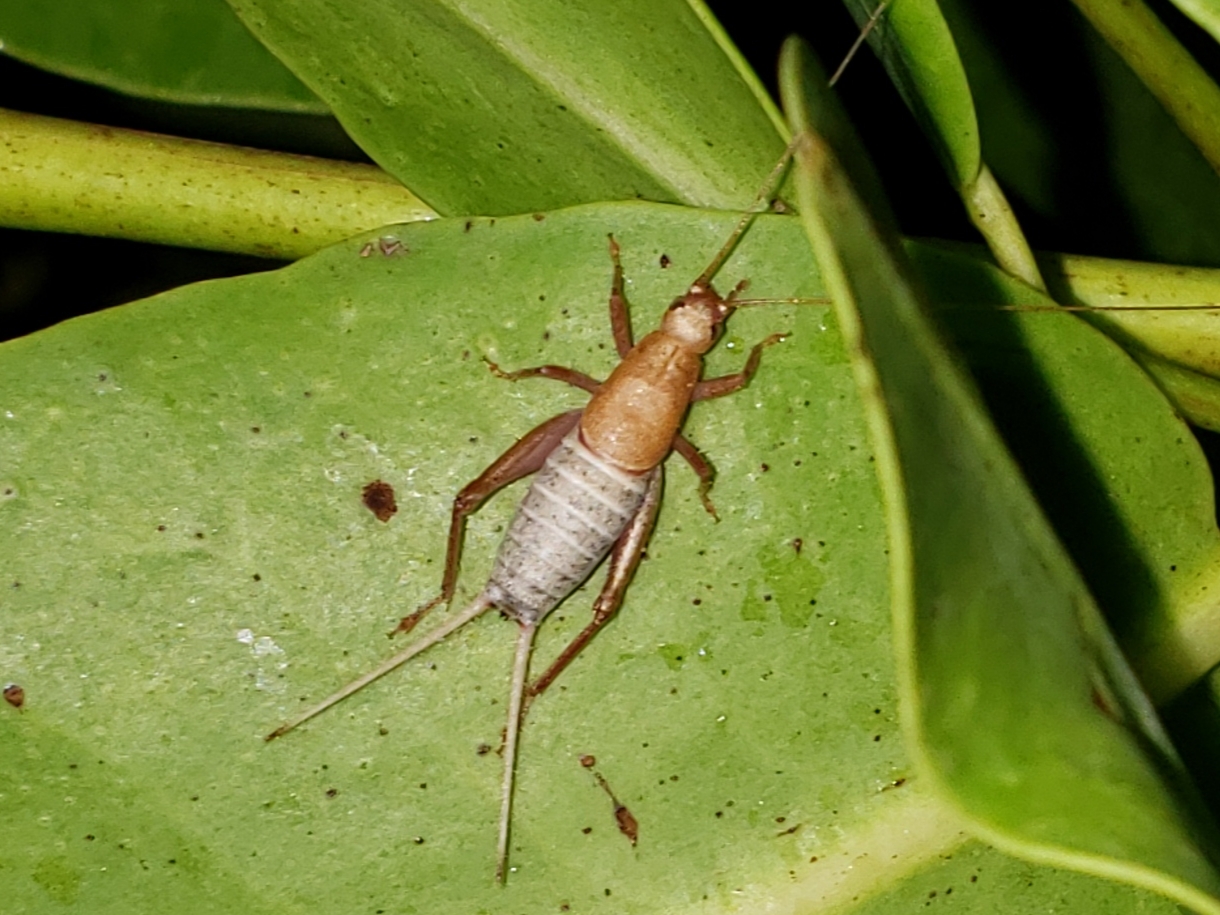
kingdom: Animalia
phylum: Arthropoda
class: Insecta
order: Orthoptera
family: Mogoplistidae
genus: Cycloptilum
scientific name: Cycloptilum spectabile
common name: Spectacular scaly cricket
